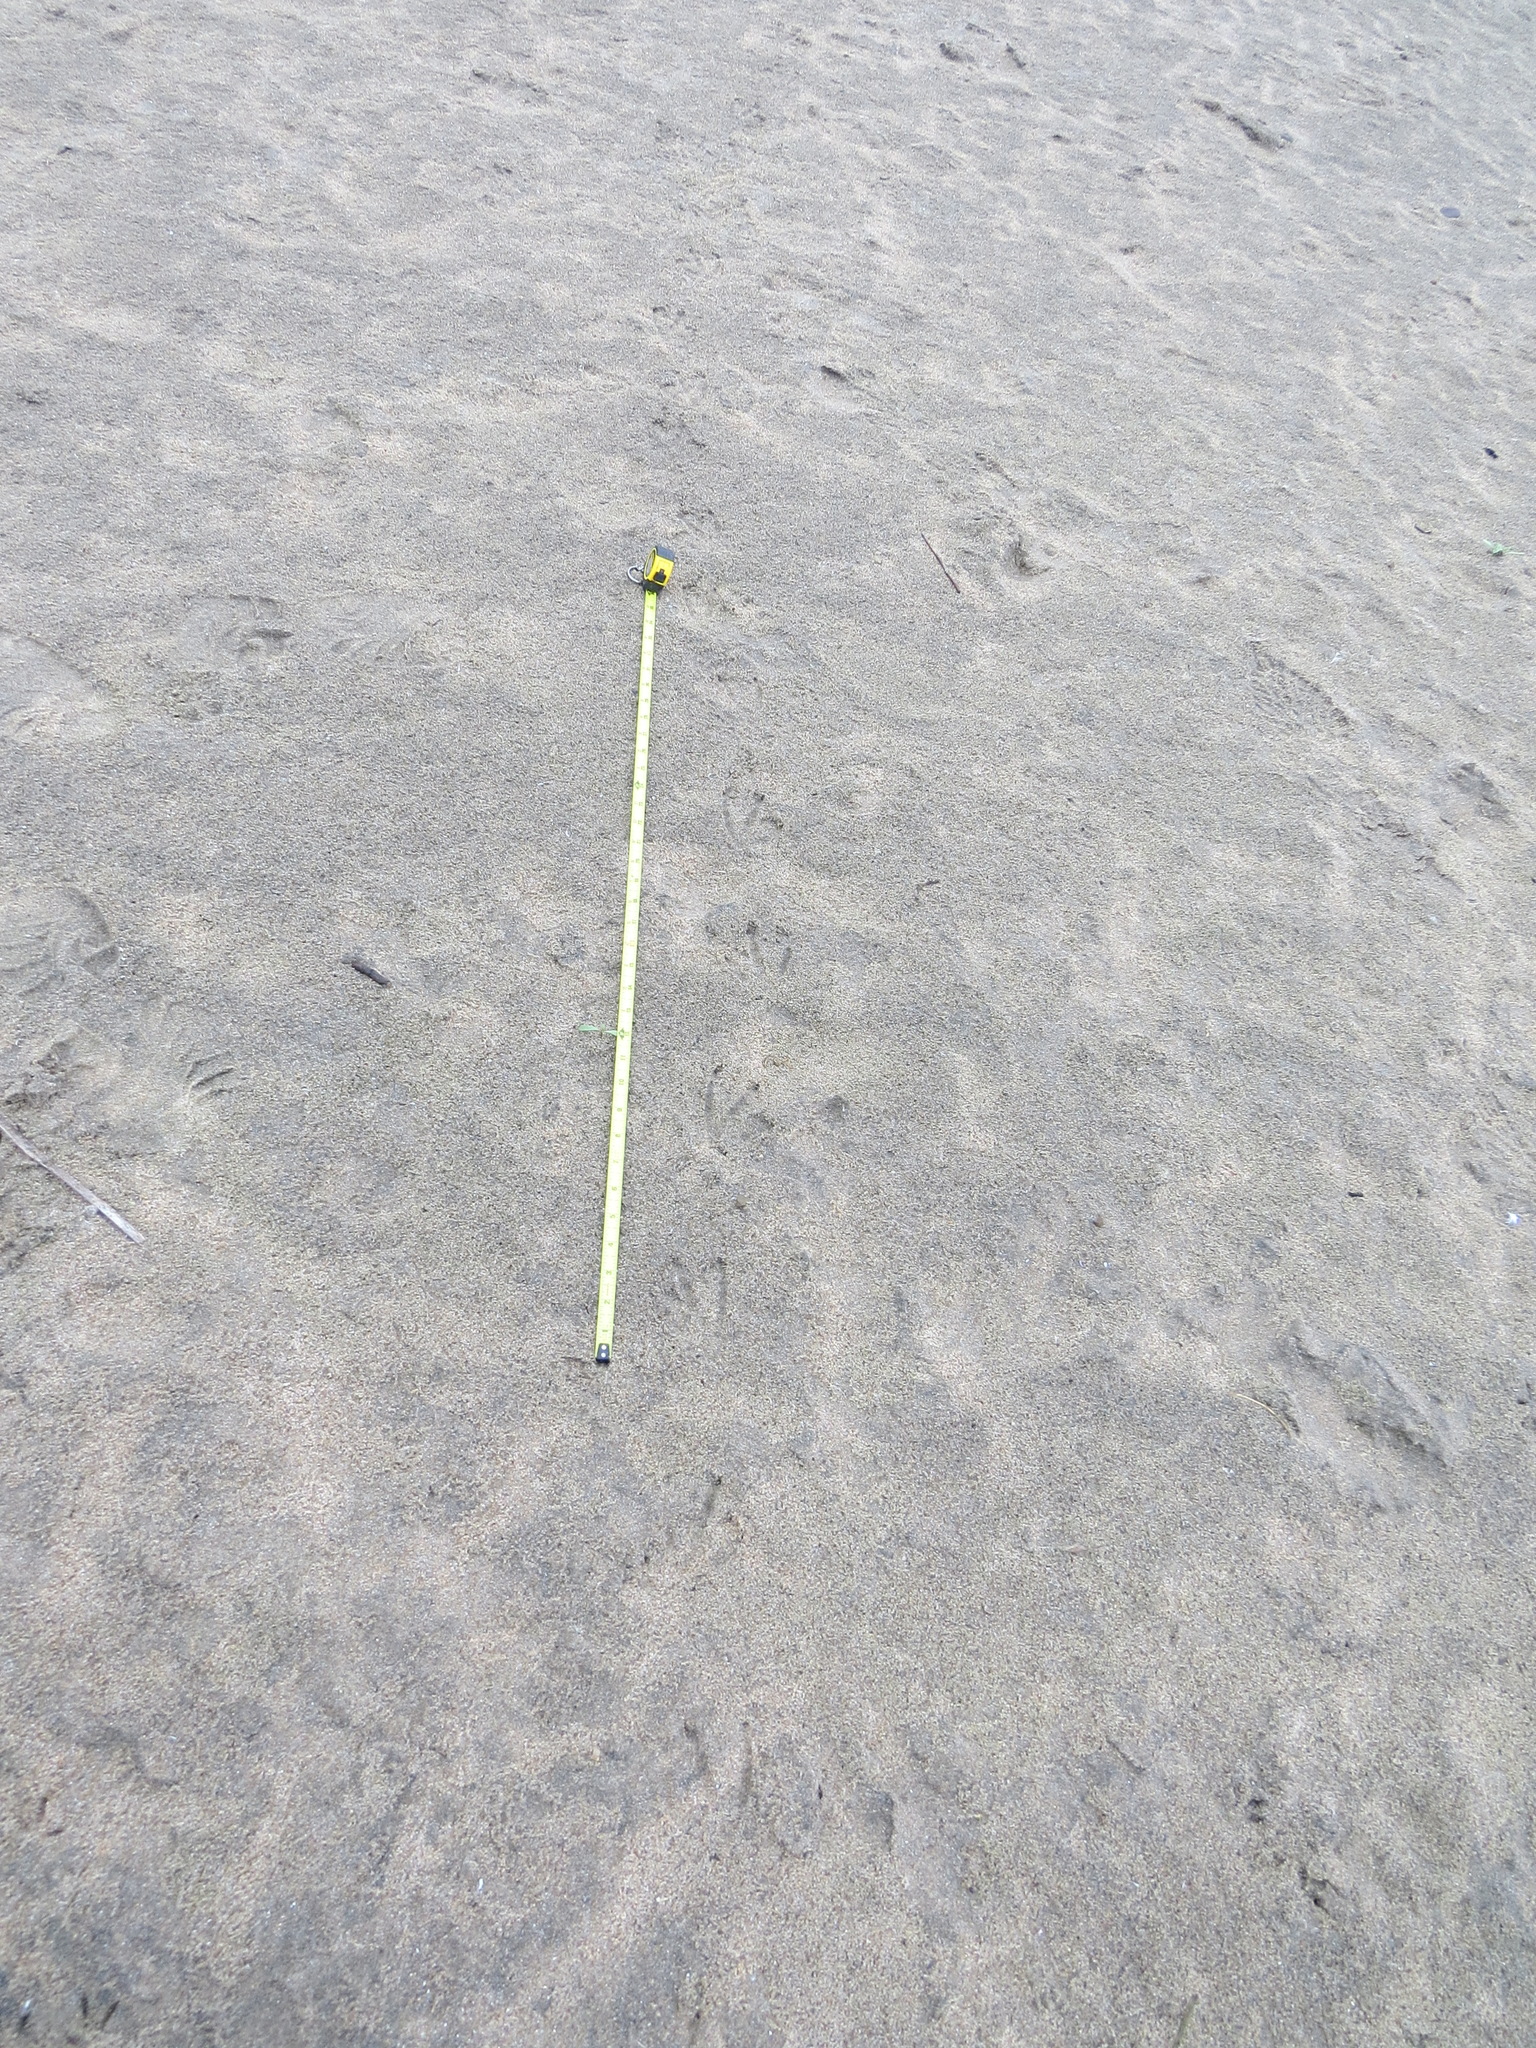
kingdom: Animalia
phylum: Chordata
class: Aves
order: Anseriformes
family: Anatidae
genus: Anser
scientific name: Anser albifrons
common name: Greater white-fronted goose
